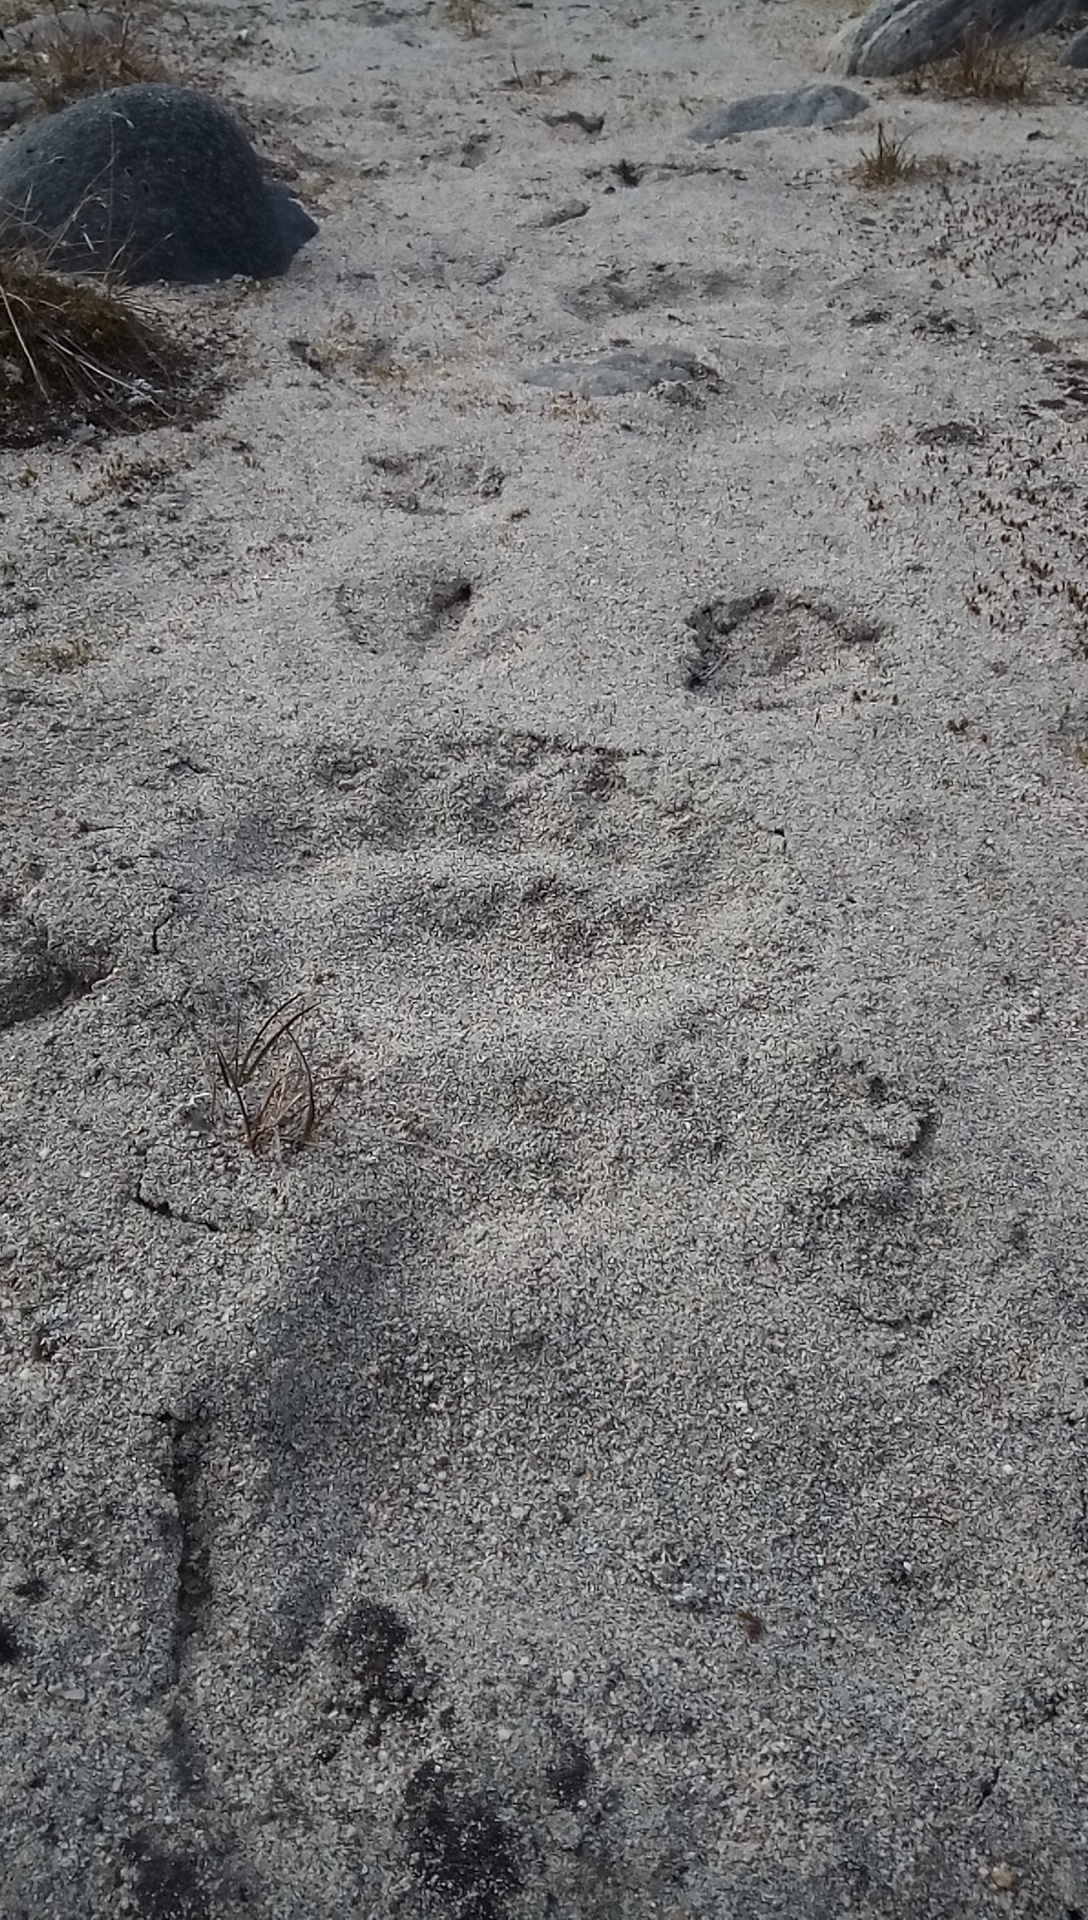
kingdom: Animalia
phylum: Chordata
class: Mammalia
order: Carnivora
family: Ursidae
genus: Ursus
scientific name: Ursus maritimus
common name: Polar bear
